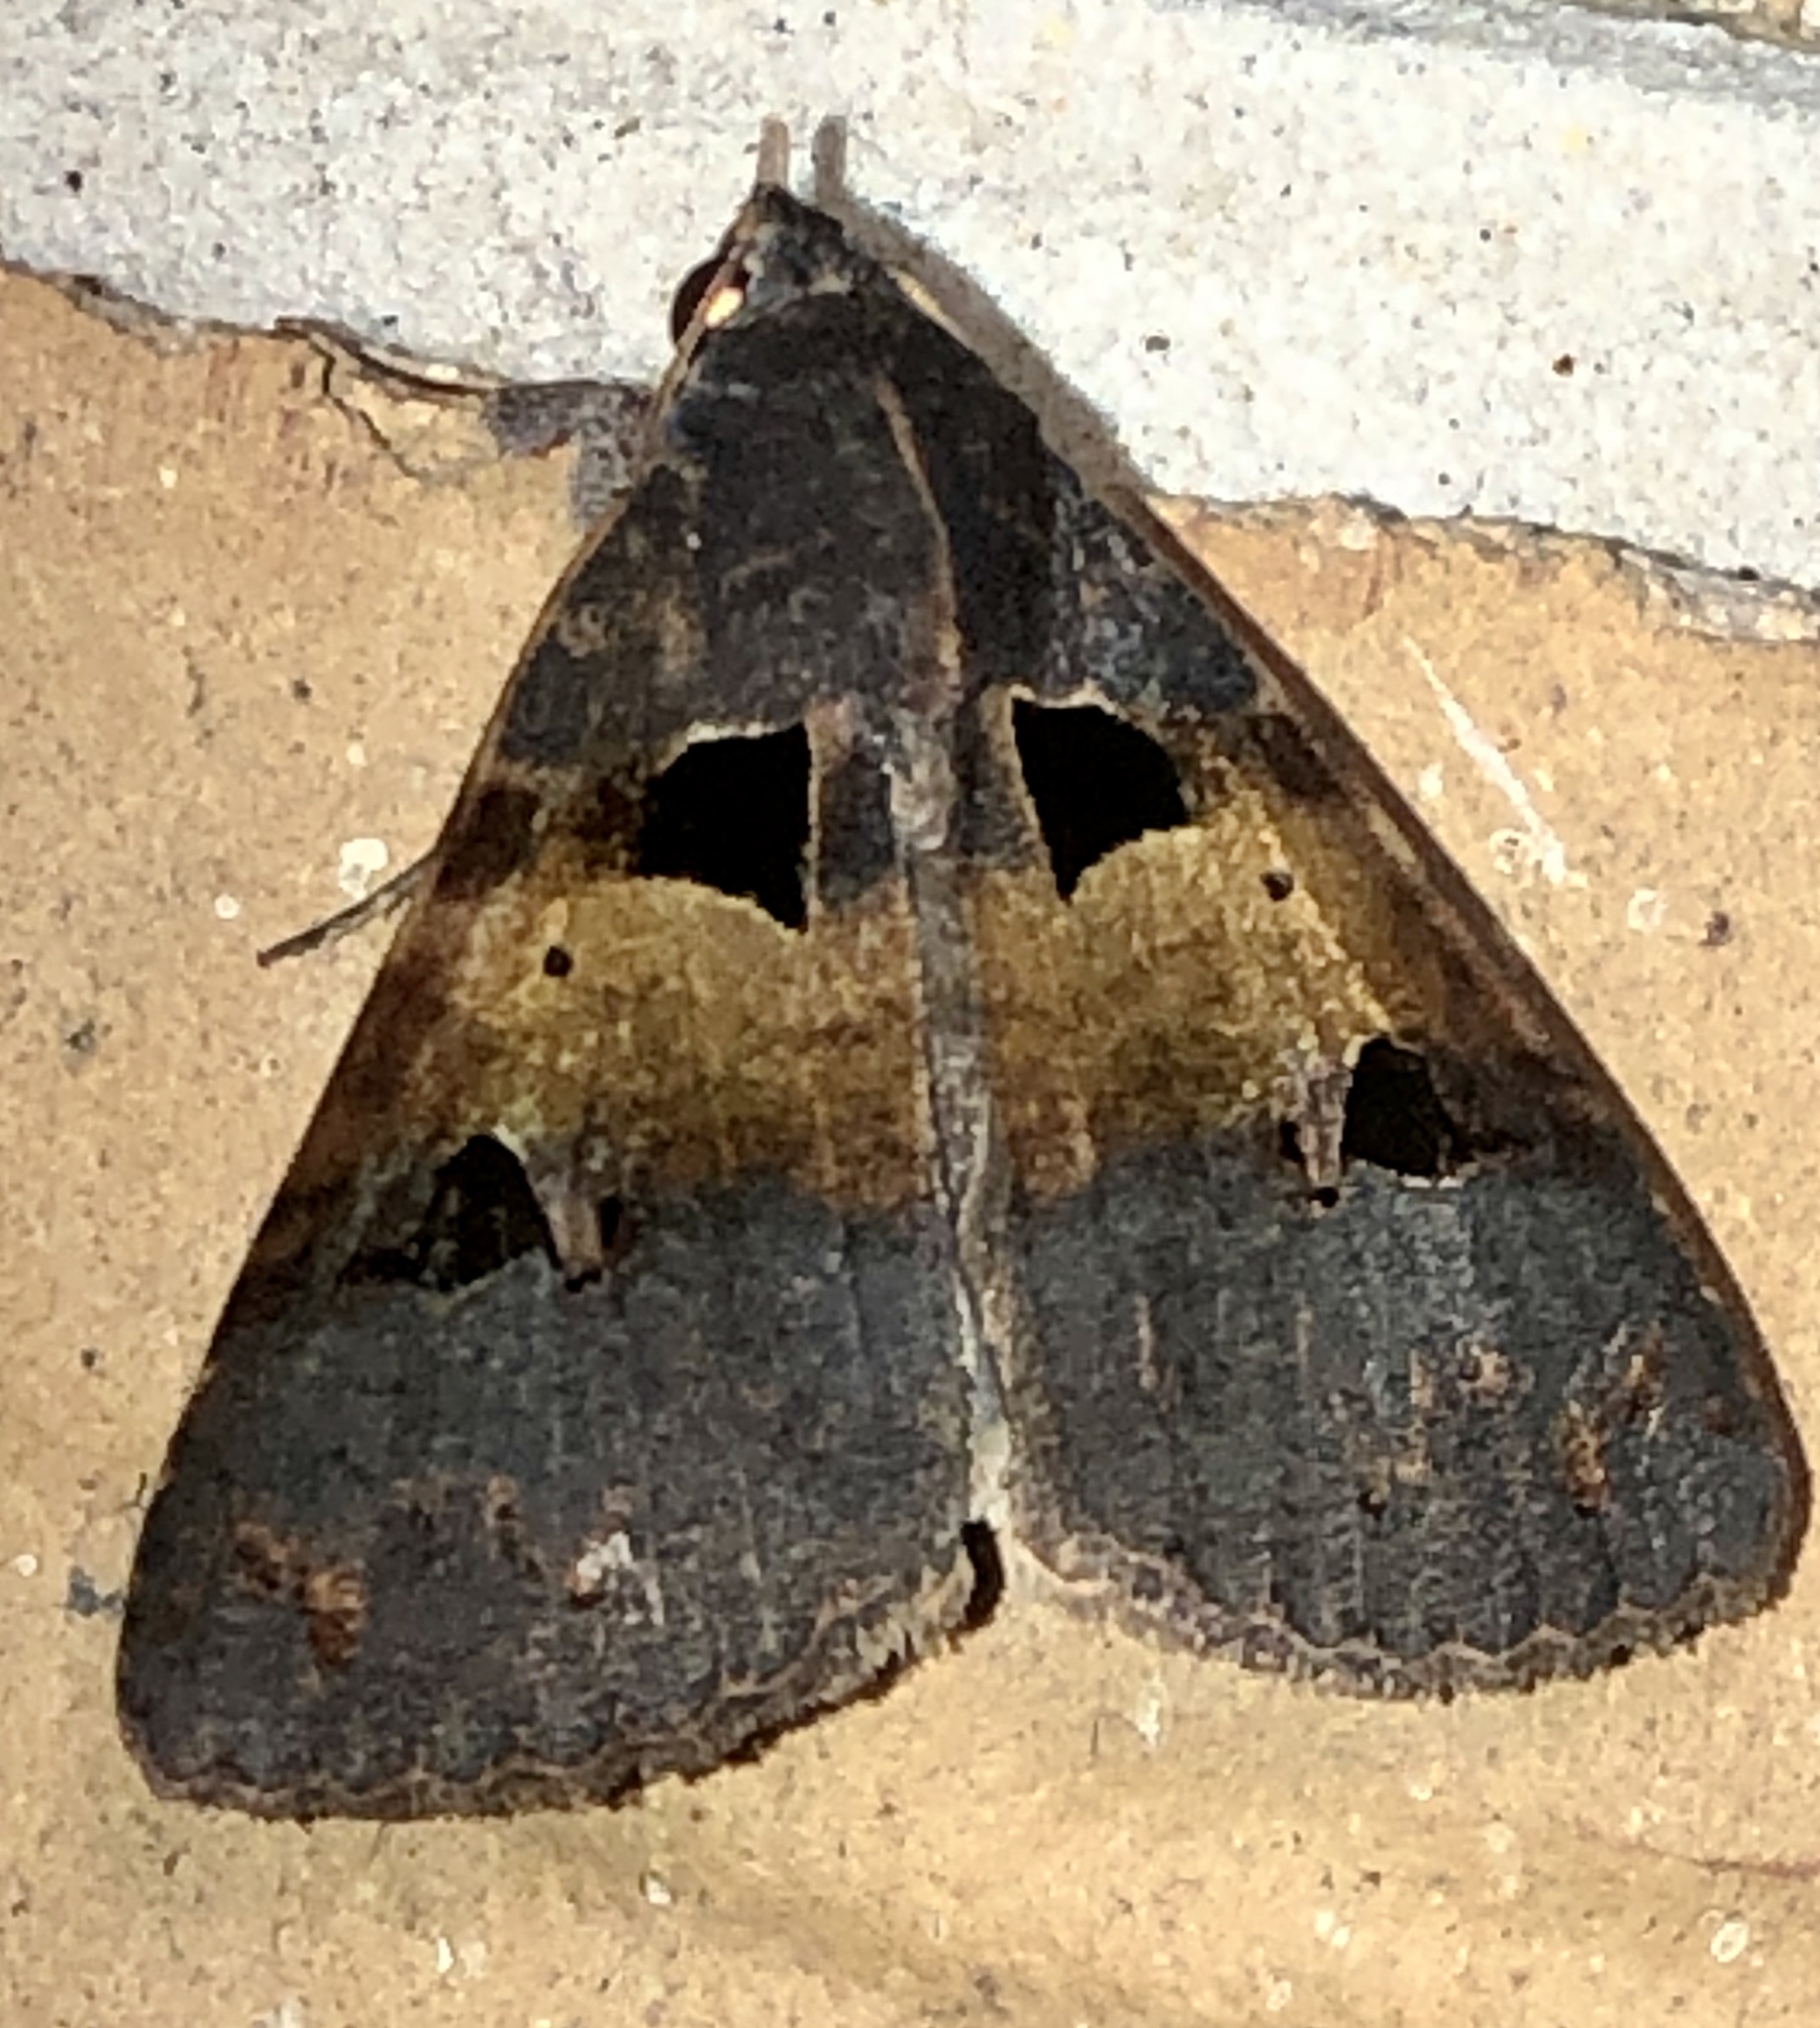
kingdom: Animalia
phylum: Arthropoda
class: Insecta
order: Lepidoptera
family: Erebidae
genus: Avatha
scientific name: Avatha discolor
